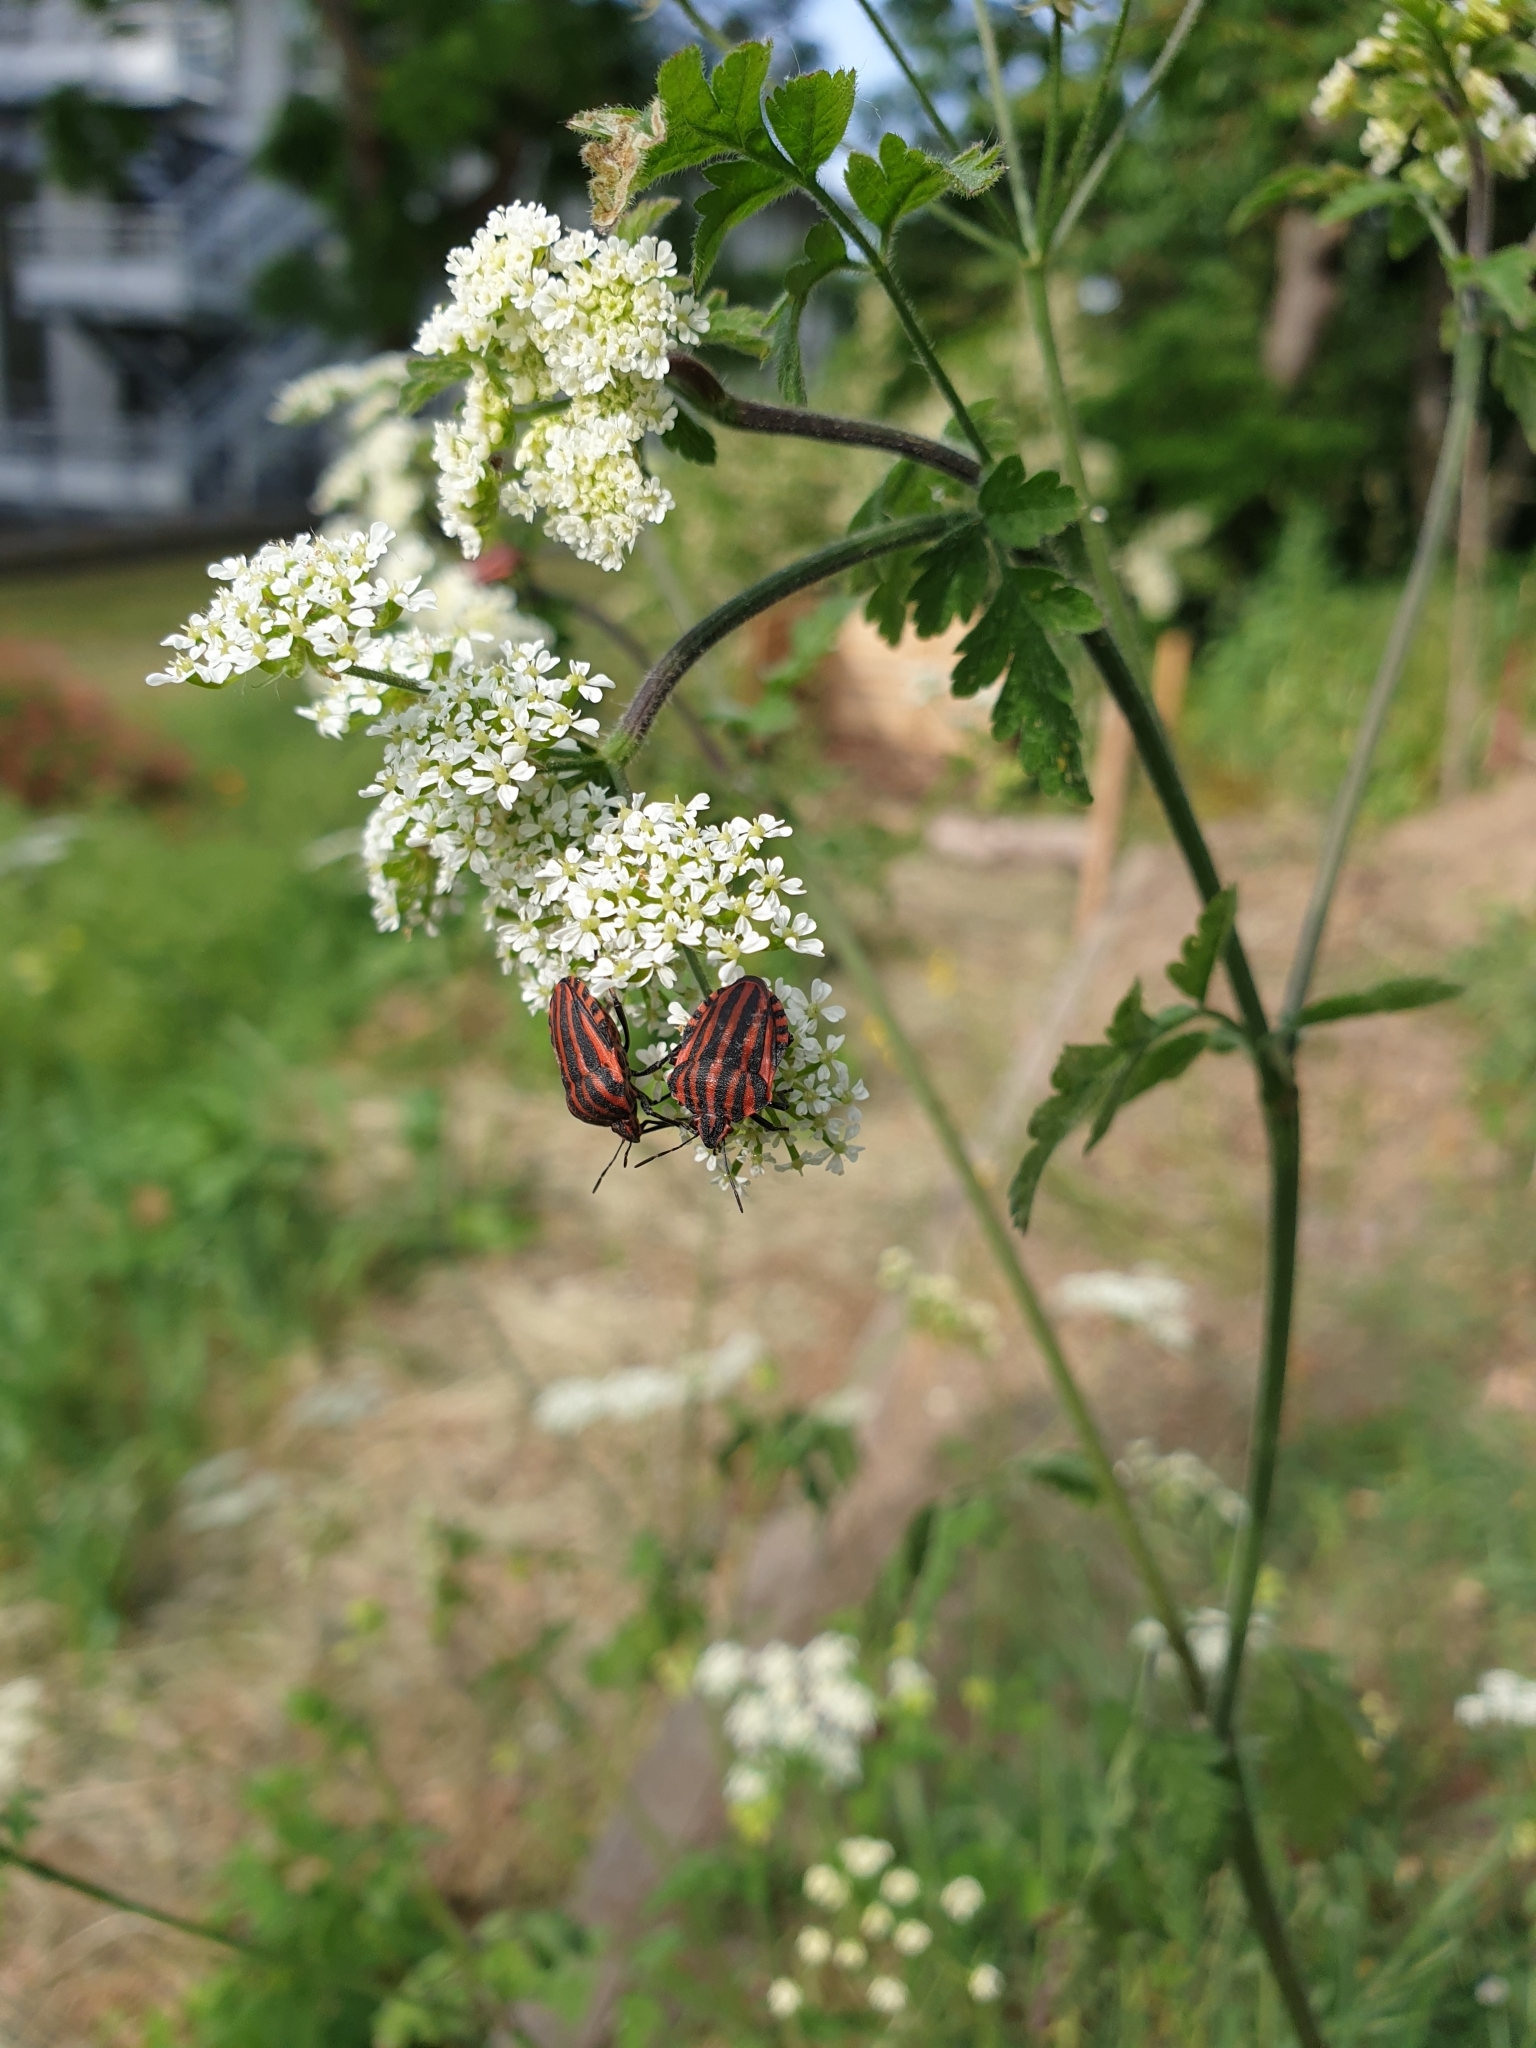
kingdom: Animalia
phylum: Arthropoda
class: Insecta
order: Hemiptera
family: Pentatomidae
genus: Graphosoma
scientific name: Graphosoma italicum
